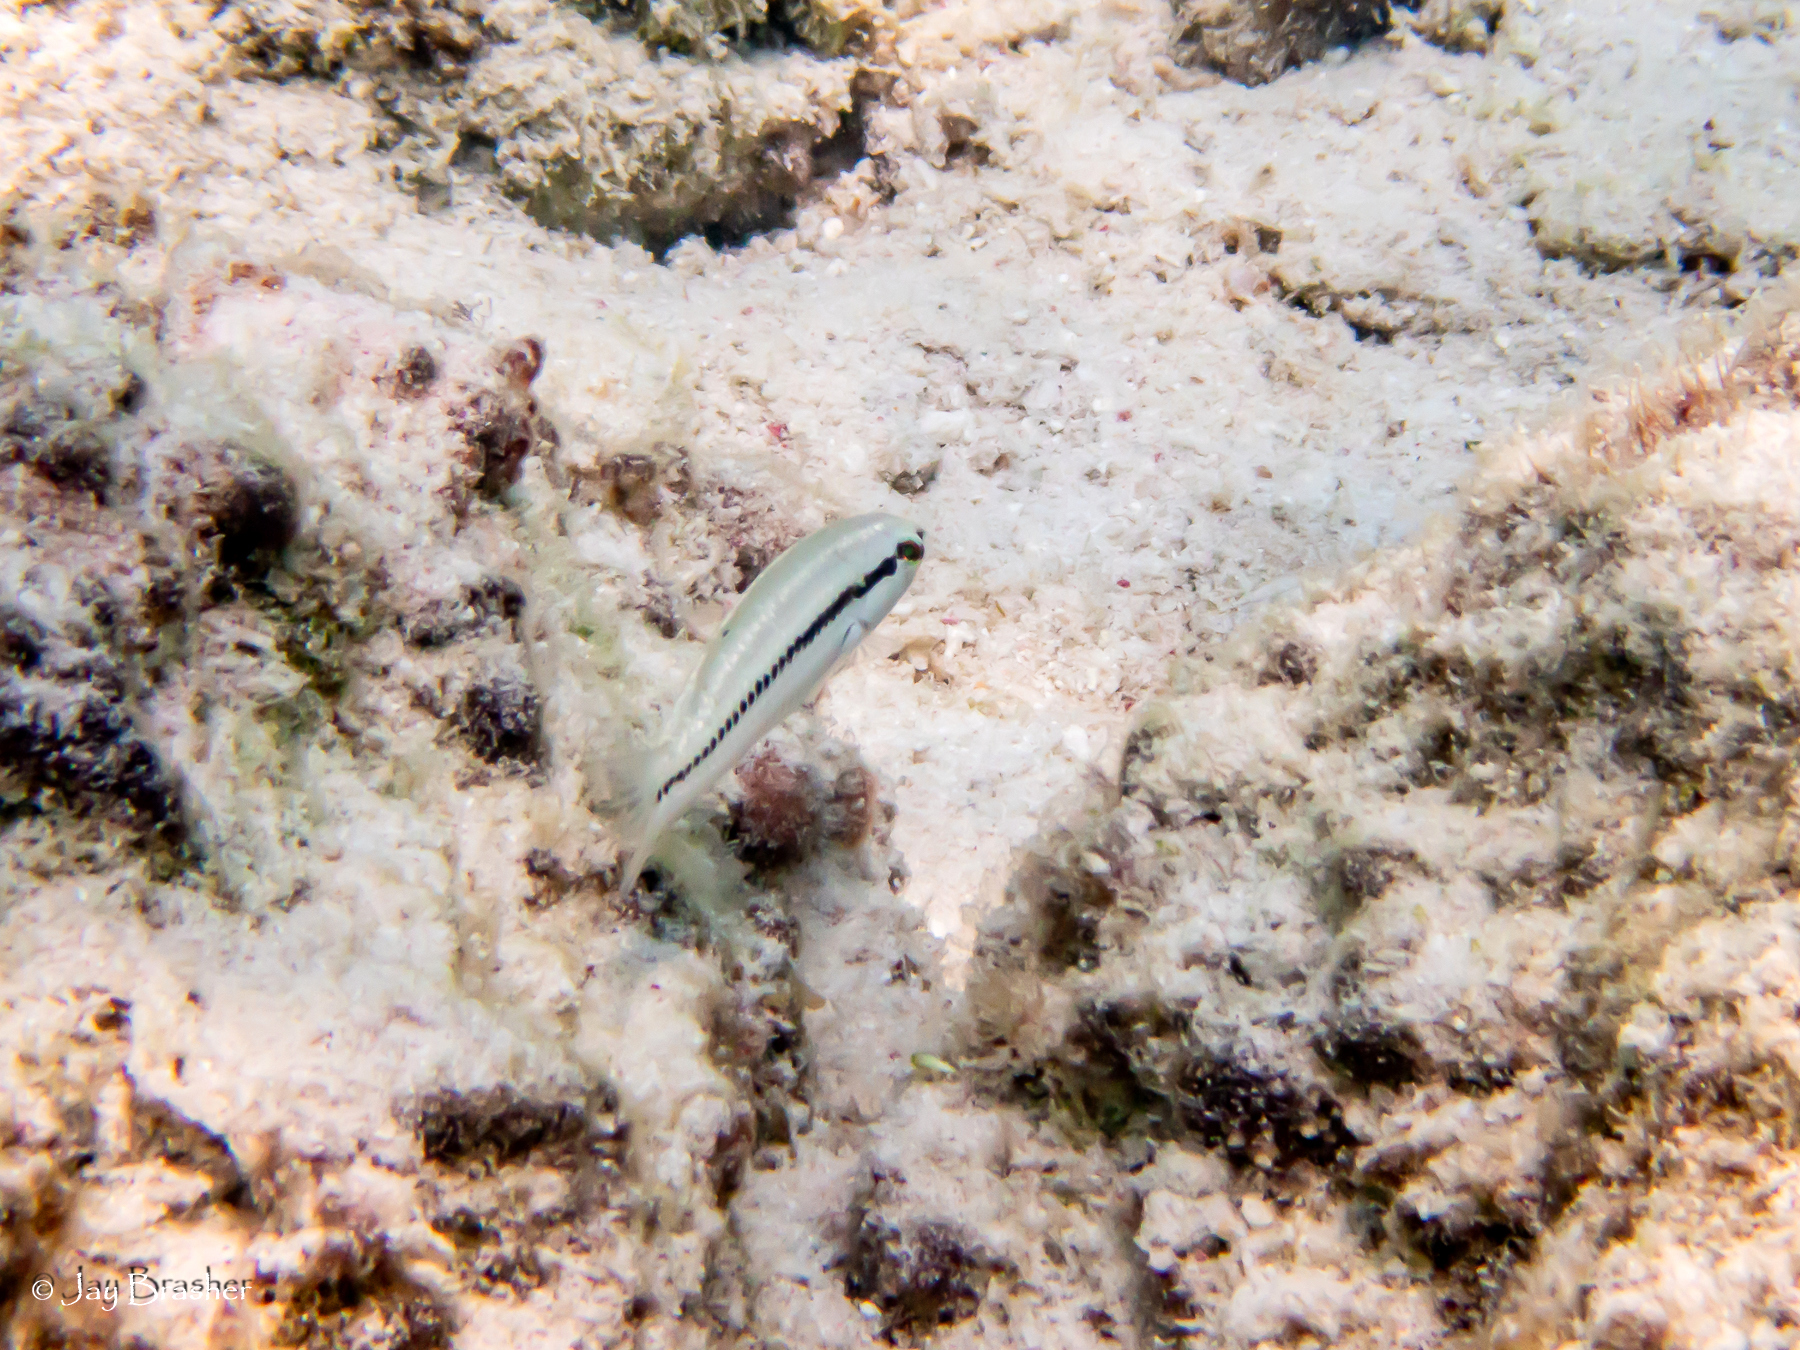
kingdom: Animalia
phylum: Chordata
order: Perciformes
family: Labridae
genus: Halichoeres
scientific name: Halichoeres bivittatus
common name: Slippery dick
